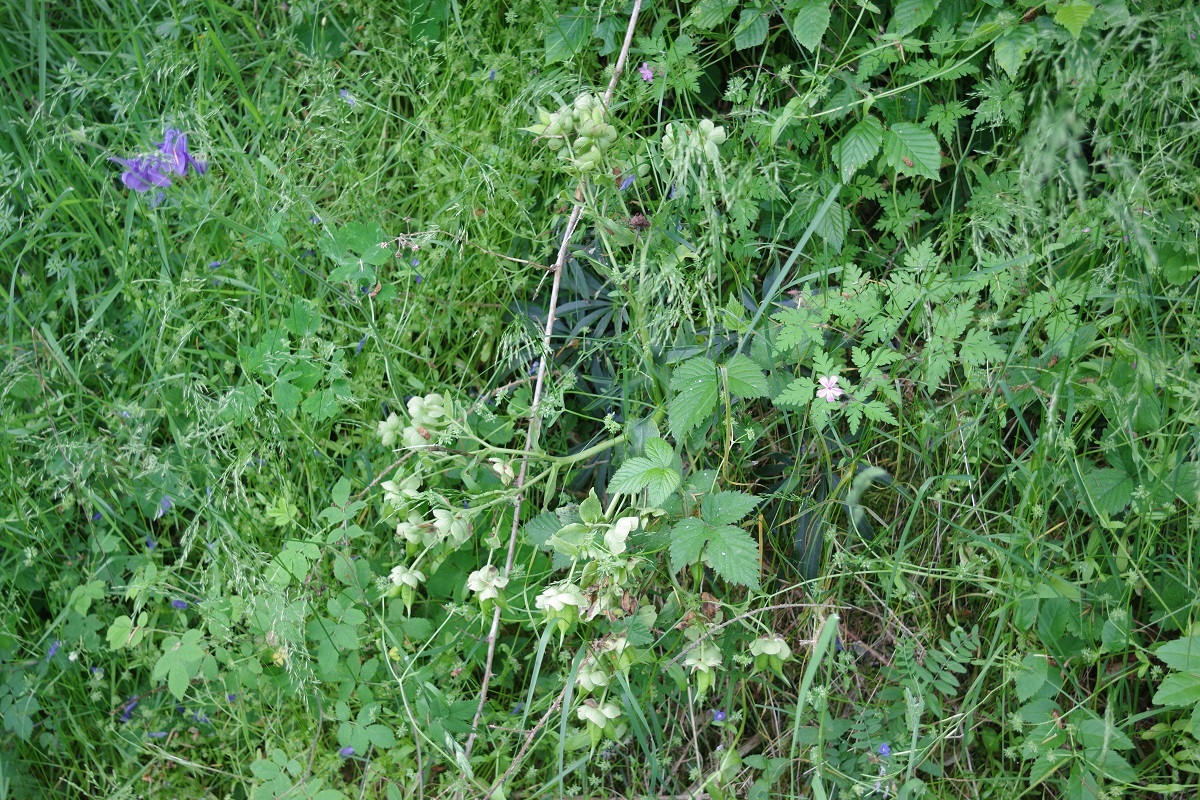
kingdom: Plantae
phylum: Tracheophyta
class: Magnoliopsida
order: Ranunculales
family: Ranunculaceae
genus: Helleborus
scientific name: Helleborus foetidus
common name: Stinking hellebore
